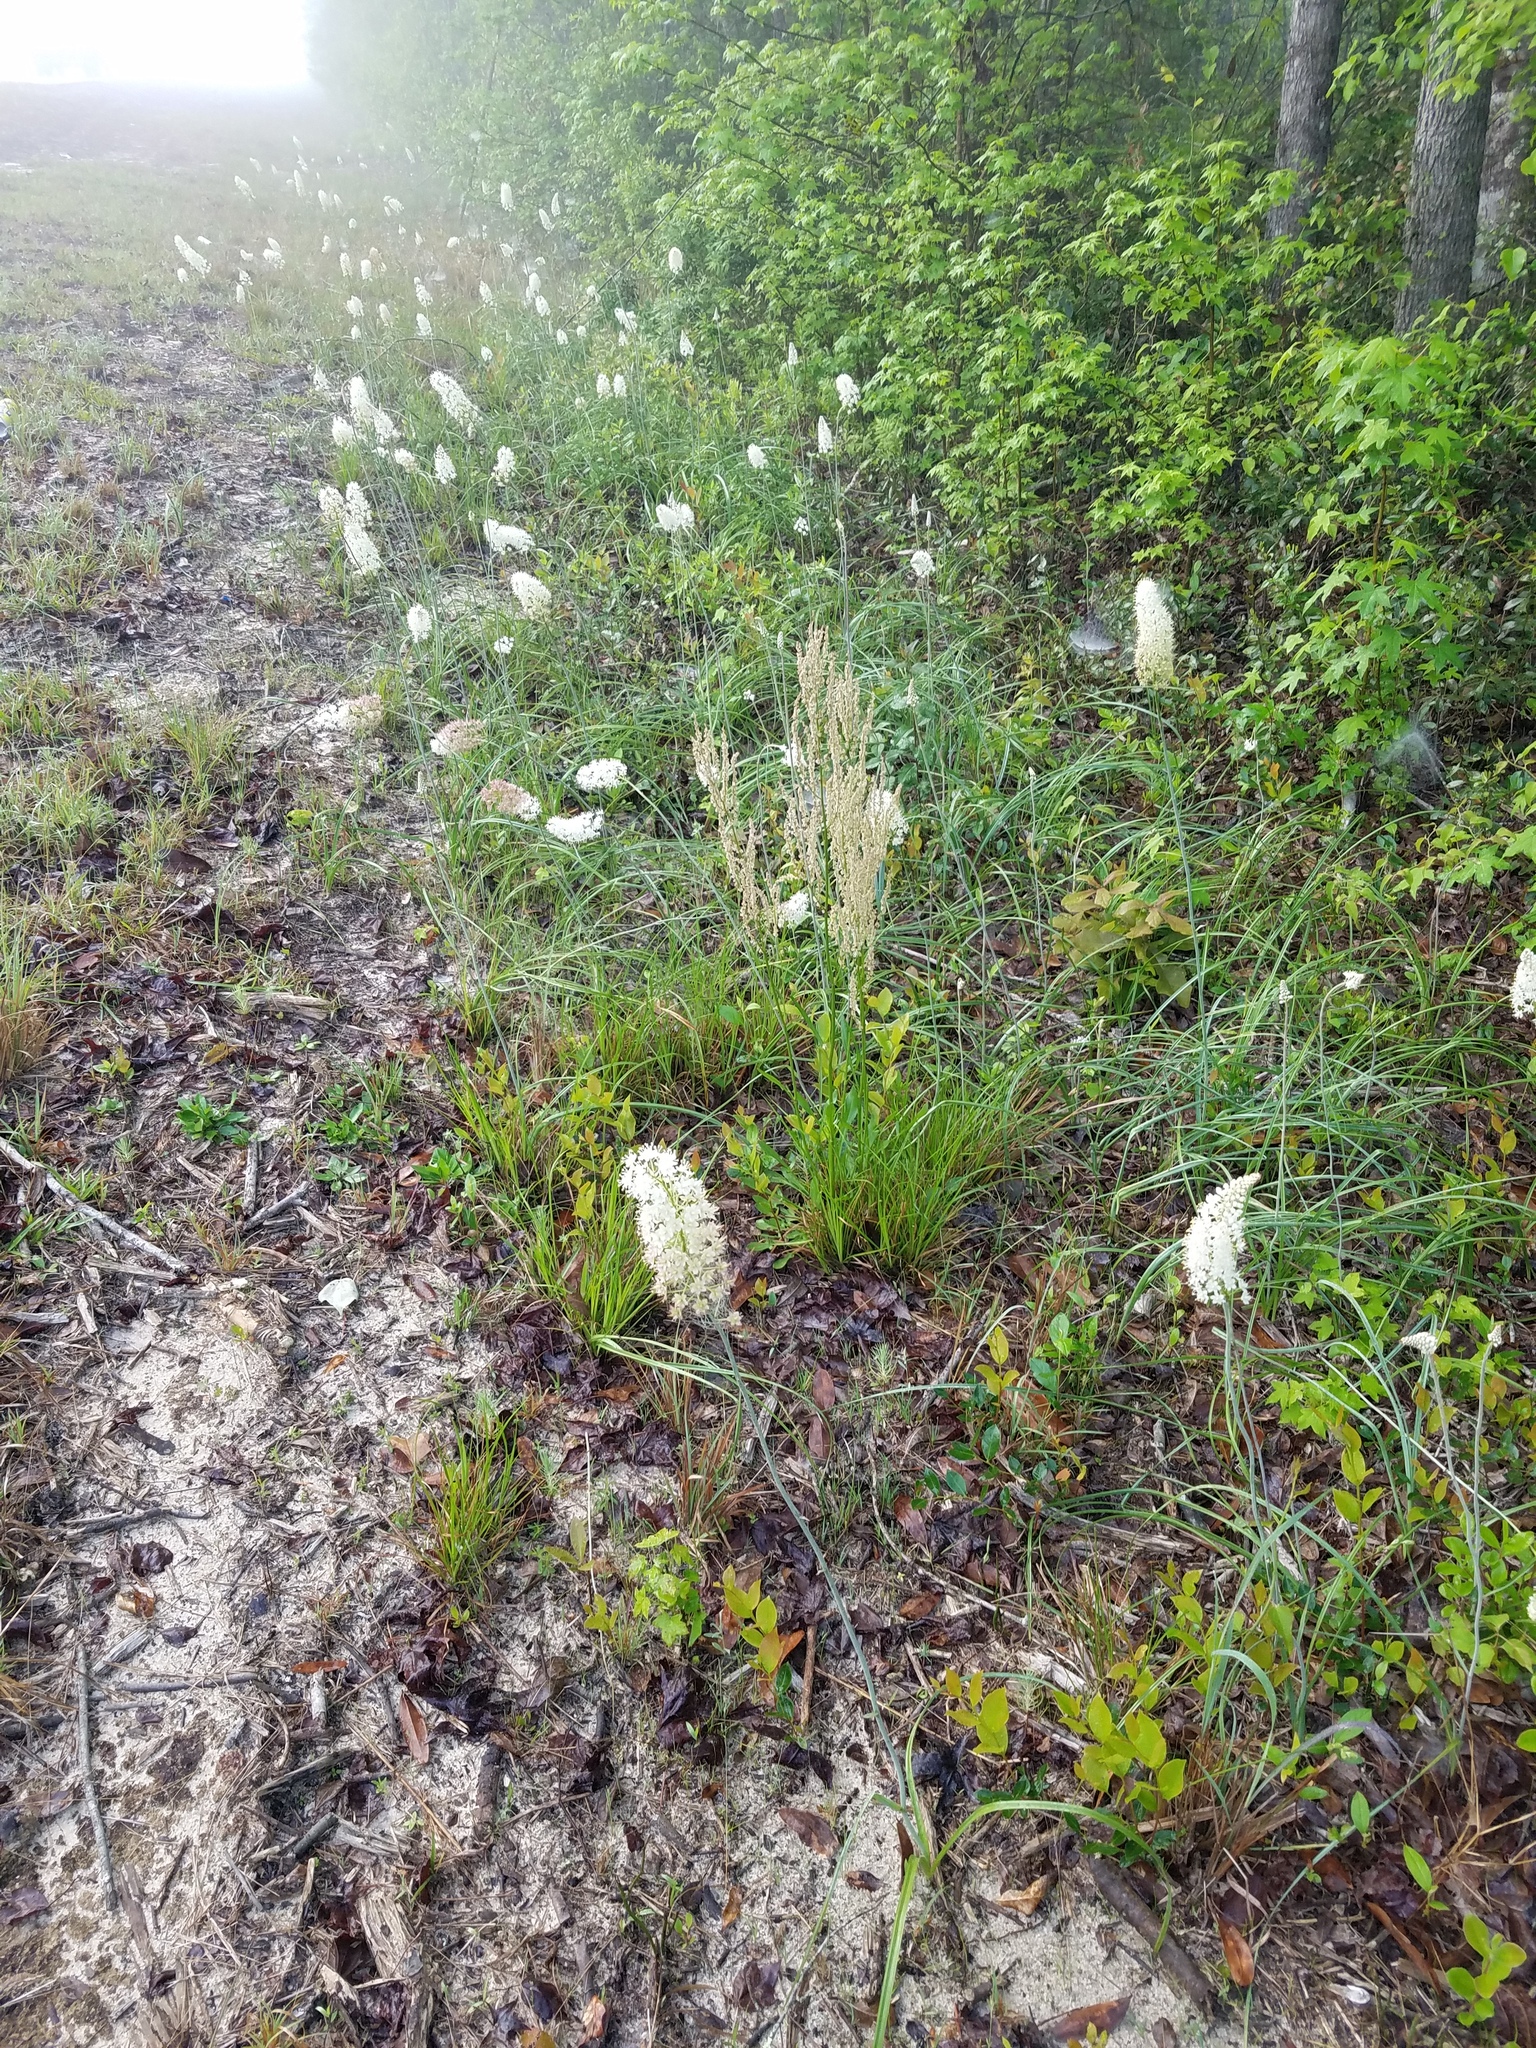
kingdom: Plantae
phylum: Tracheophyta
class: Liliopsida
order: Liliales
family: Melanthiaceae
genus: Stenanthium
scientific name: Stenanthium densum
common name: Crow-poison
